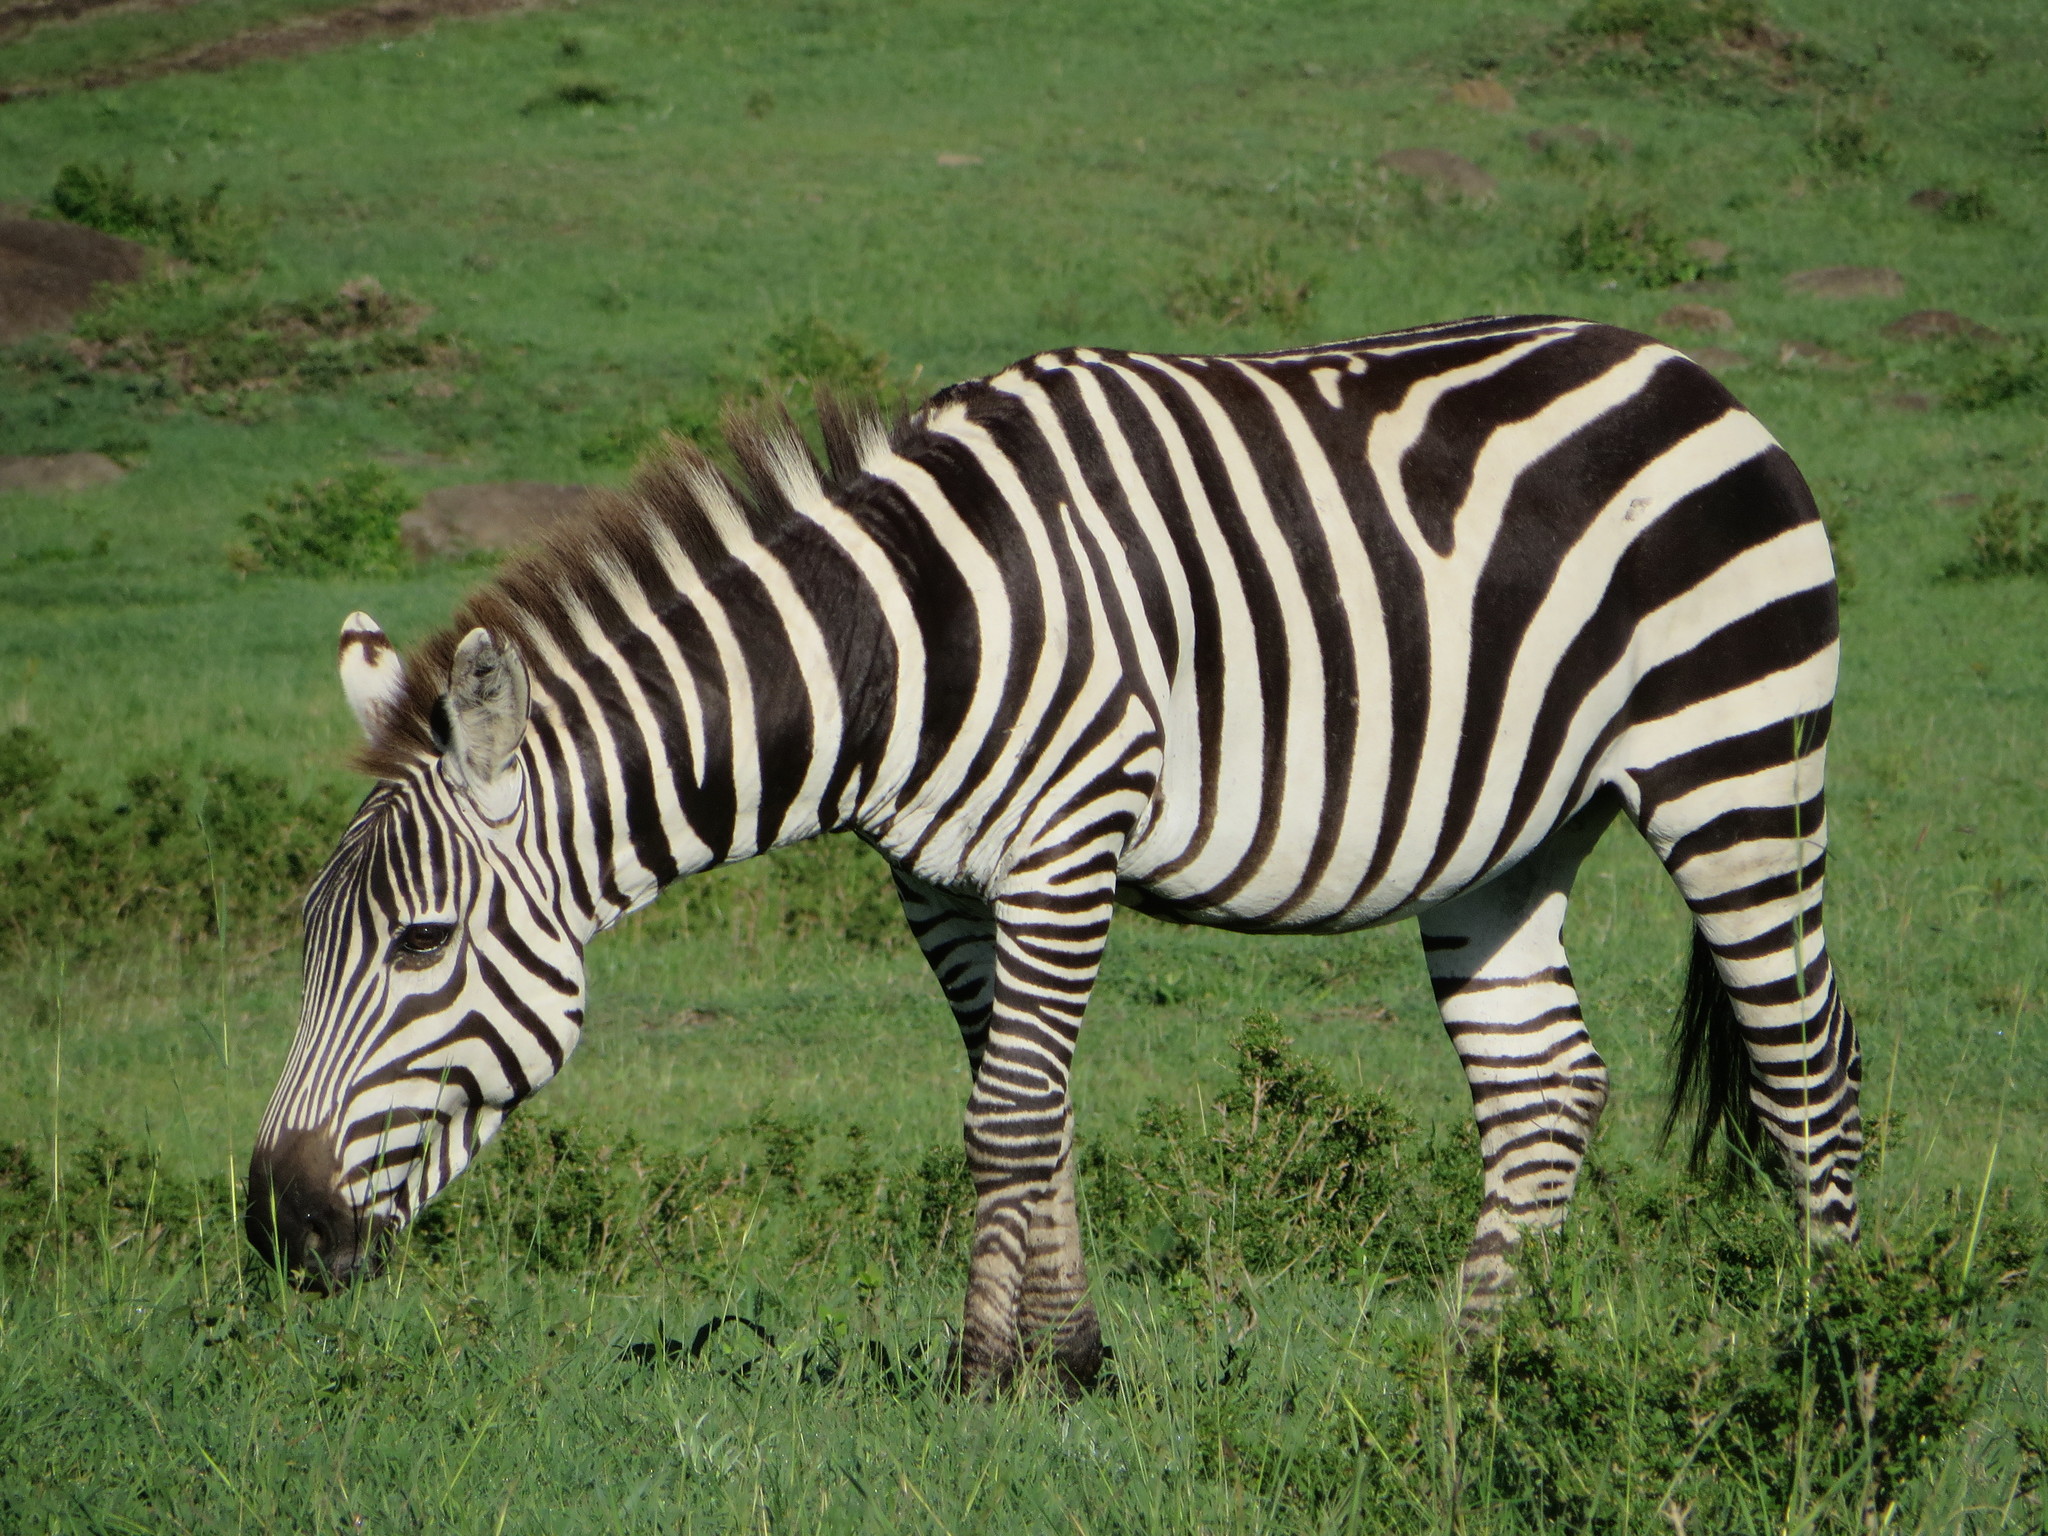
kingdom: Animalia
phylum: Chordata
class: Mammalia
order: Perissodactyla
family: Equidae
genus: Equus
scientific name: Equus quagga
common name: Plains zebra
